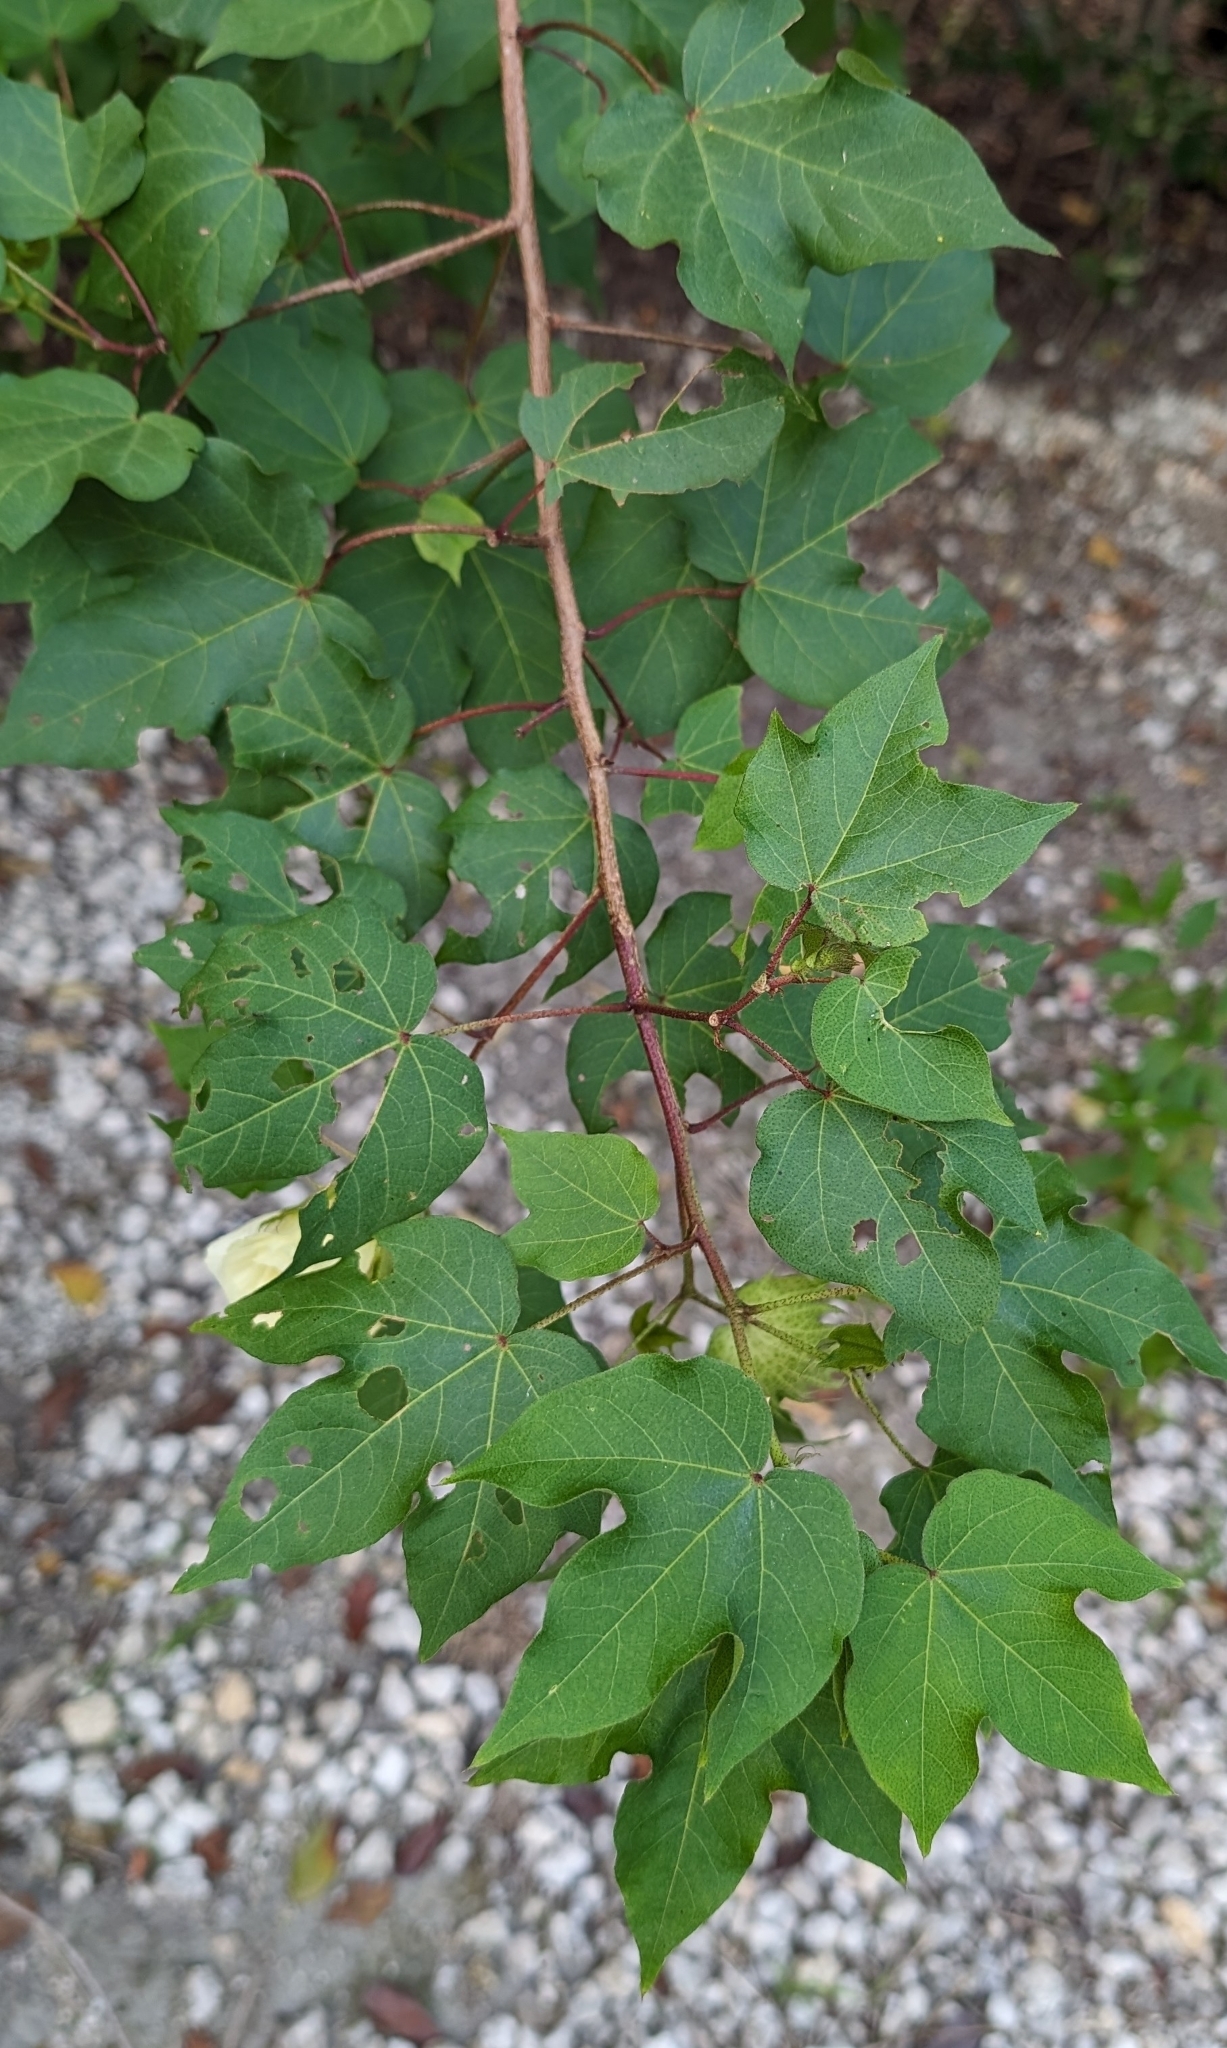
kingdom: Plantae
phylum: Tracheophyta
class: Magnoliopsida
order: Malvales
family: Malvaceae
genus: Gossypium
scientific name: Gossypium hirsutum
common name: Cotton
